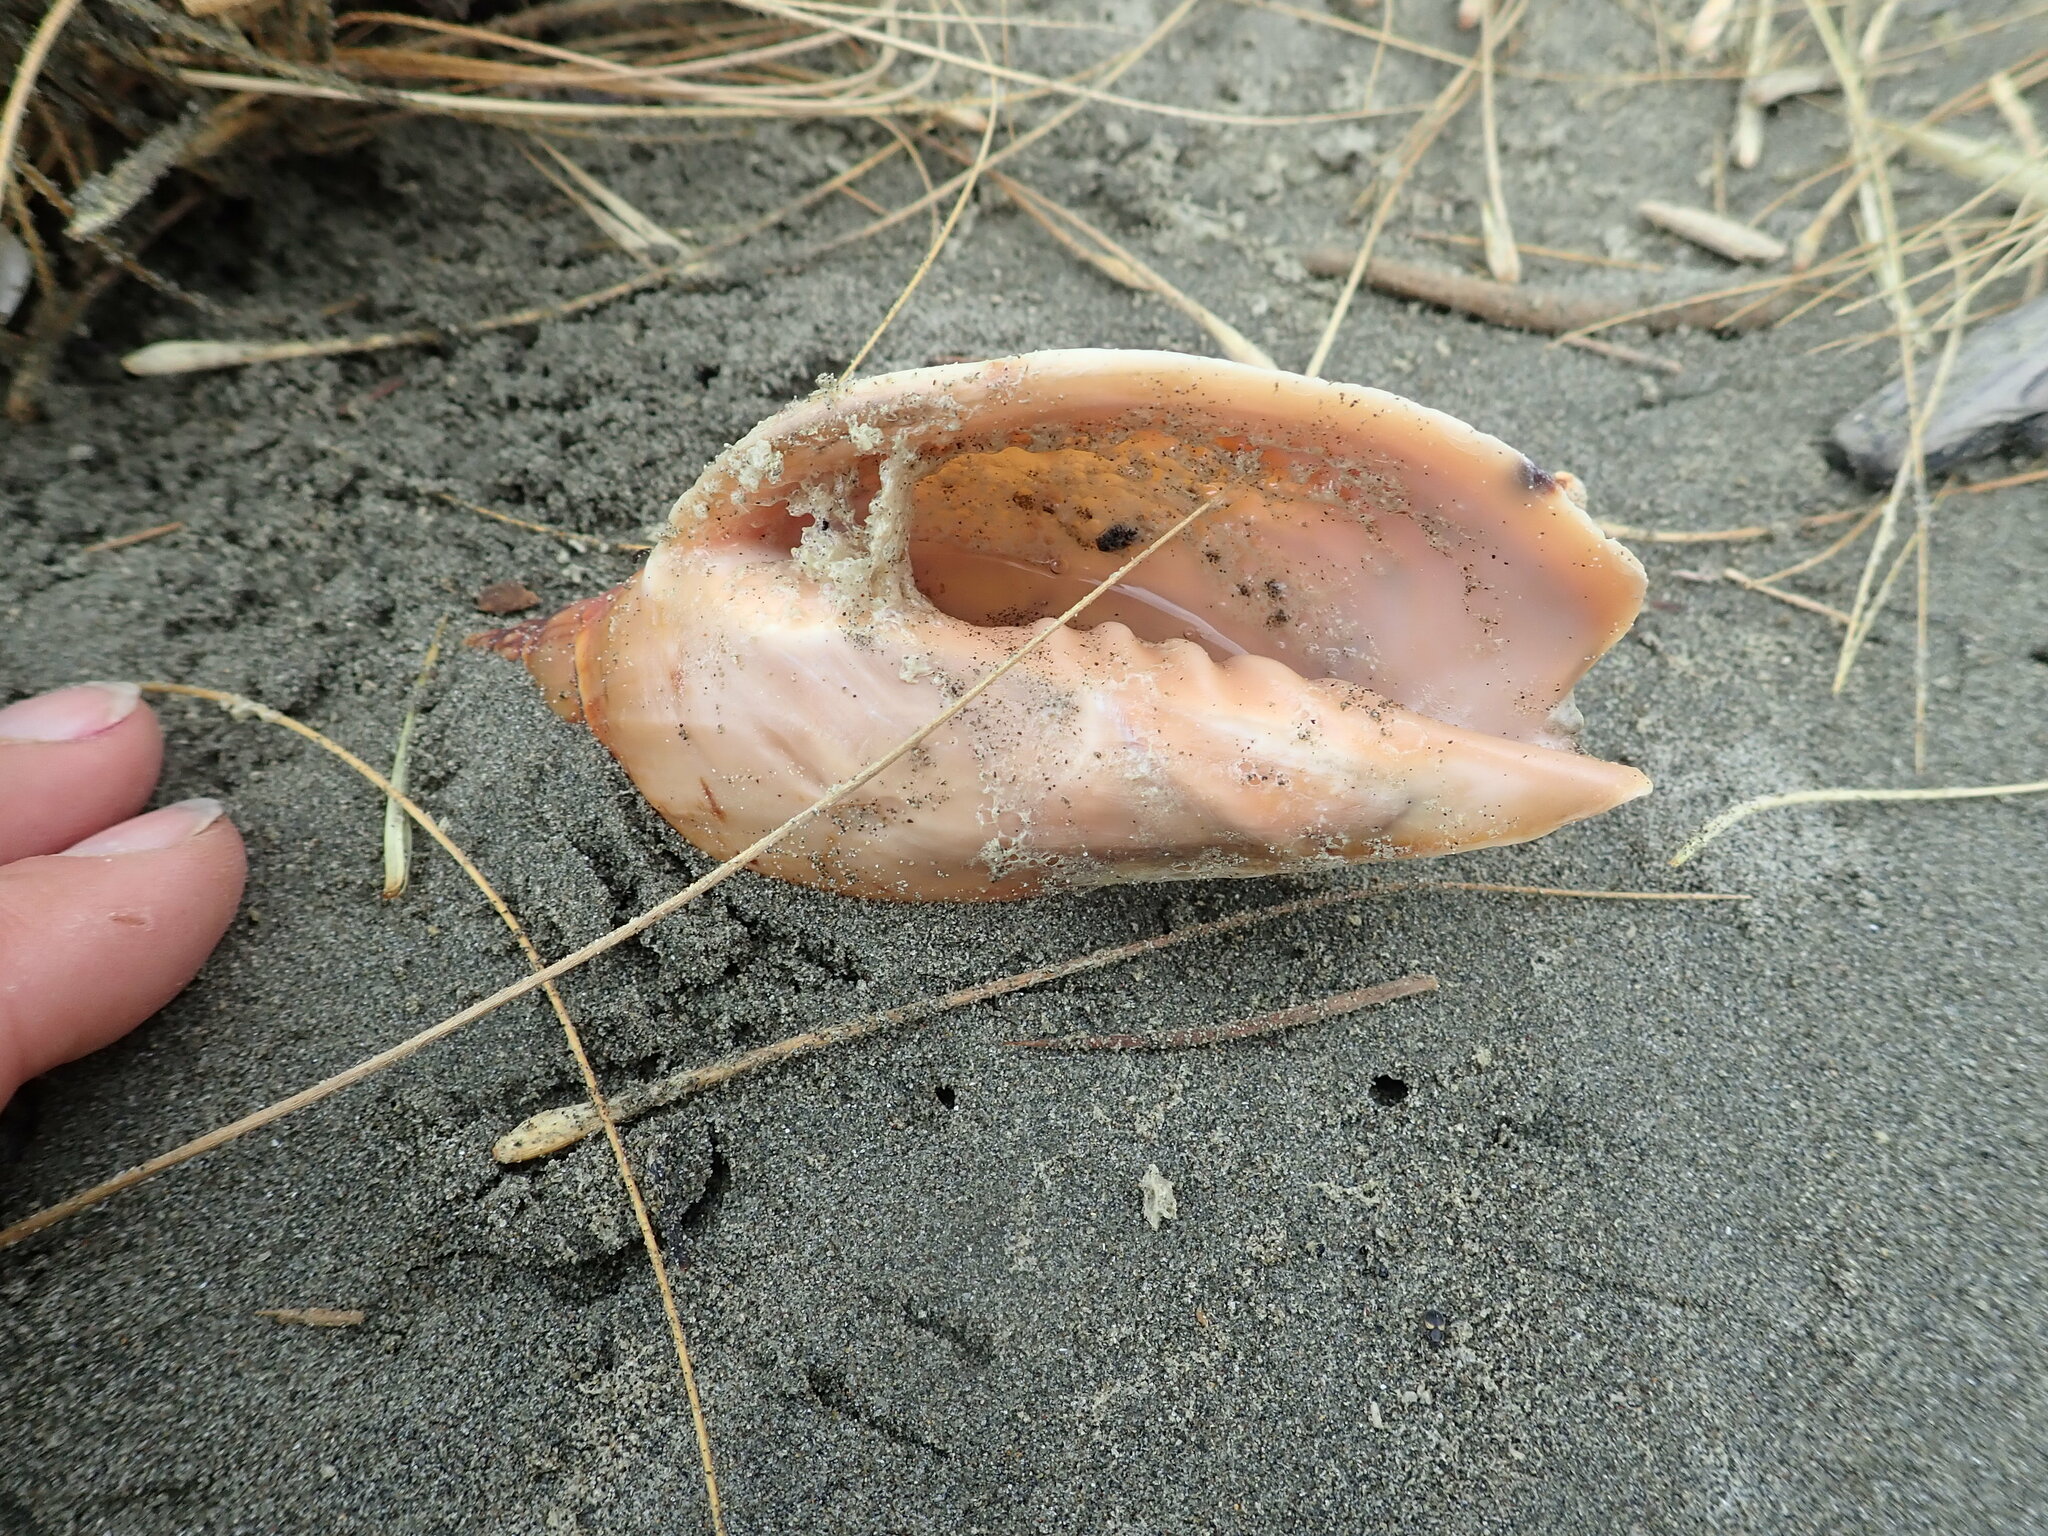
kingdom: Animalia
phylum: Mollusca
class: Gastropoda
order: Neogastropoda
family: Volutidae
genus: Alcithoe
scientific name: Alcithoe arabica
